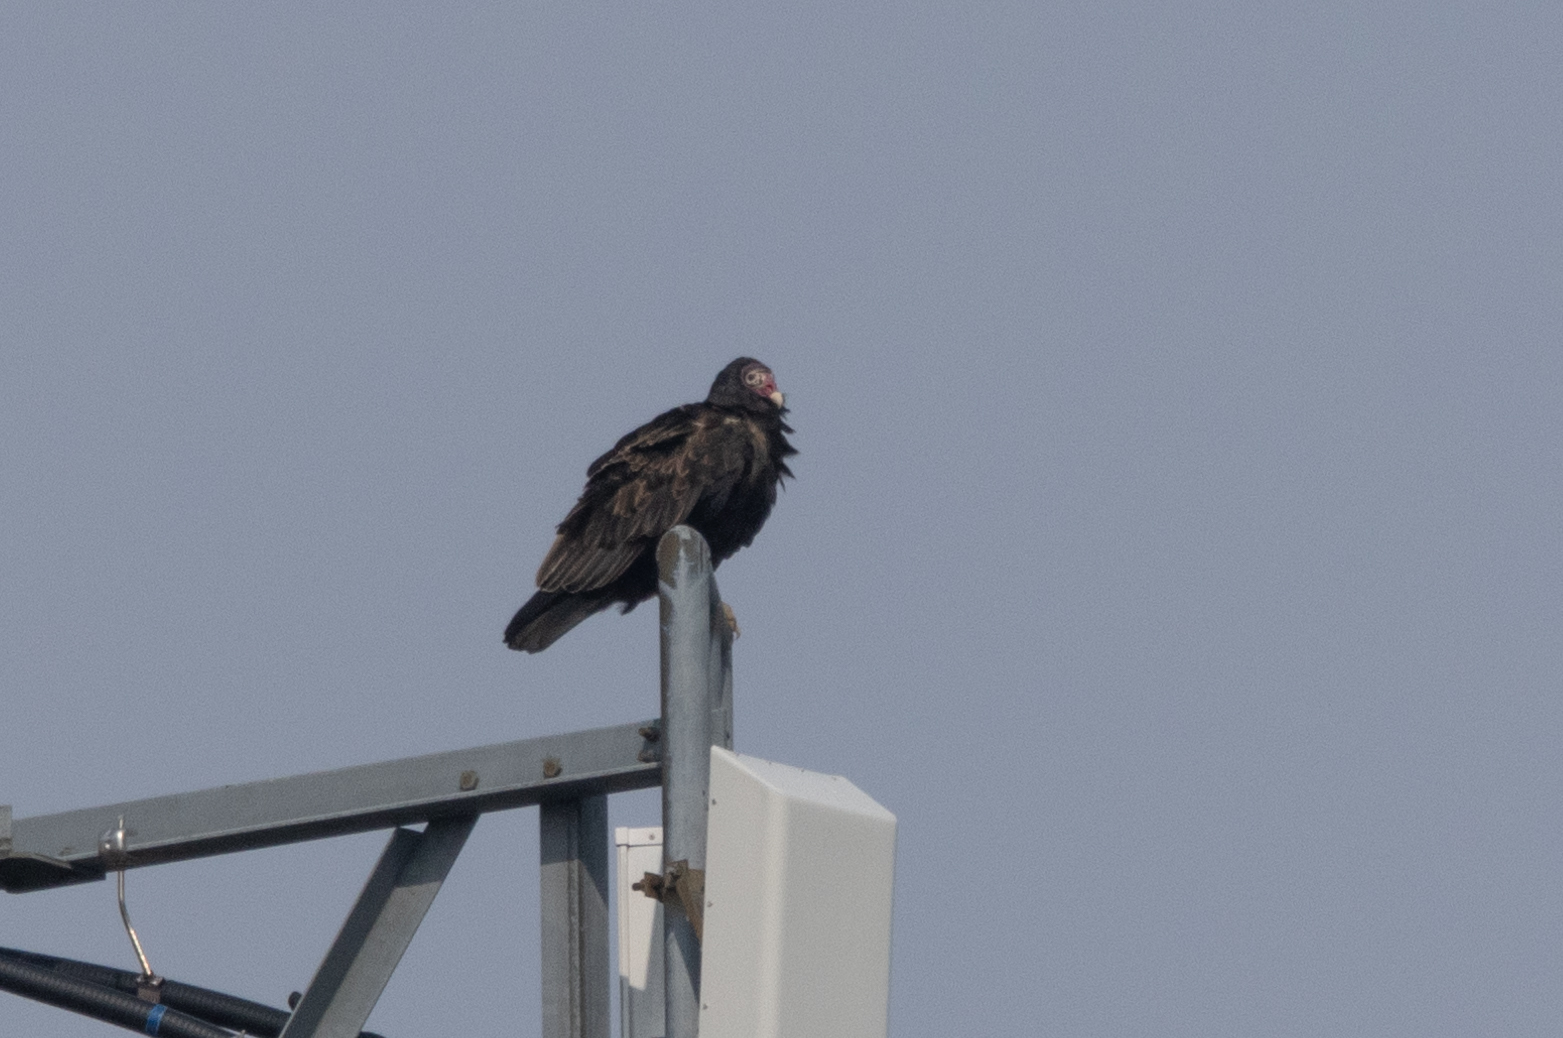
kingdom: Animalia
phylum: Chordata
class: Aves
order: Accipitriformes
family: Cathartidae
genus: Cathartes
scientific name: Cathartes aura
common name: Turkey vulture
